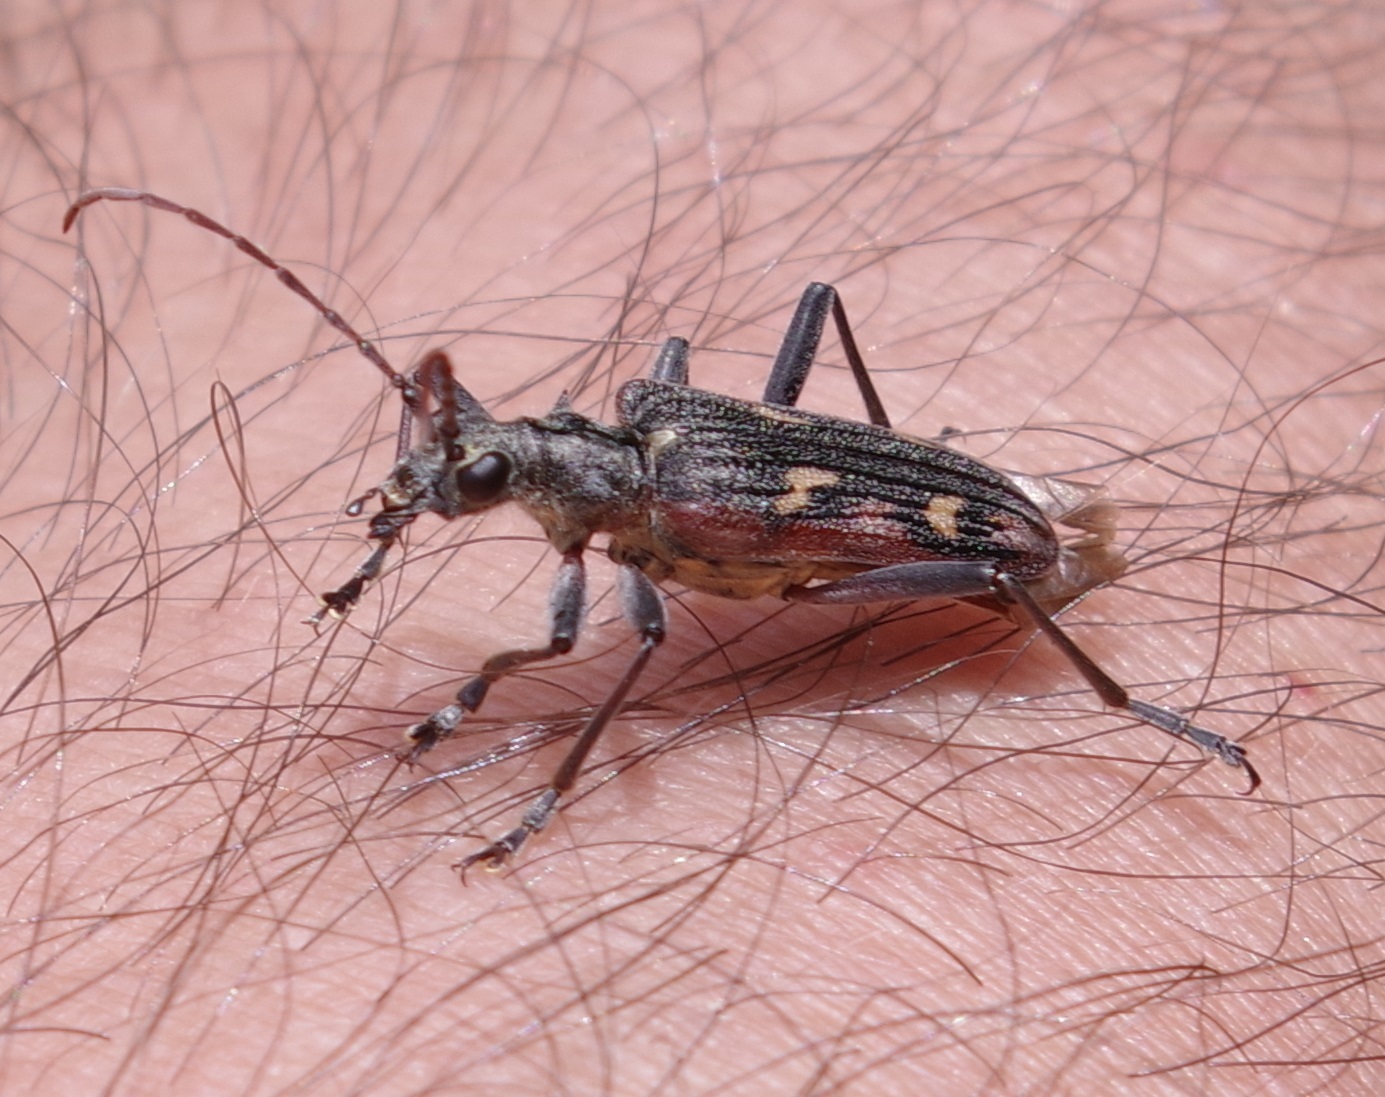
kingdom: Animalia
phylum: Arthropoda
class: Insecta
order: Coleoptera
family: Cerambycidae
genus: Rhagium
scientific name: Rhagium bifasciatum
